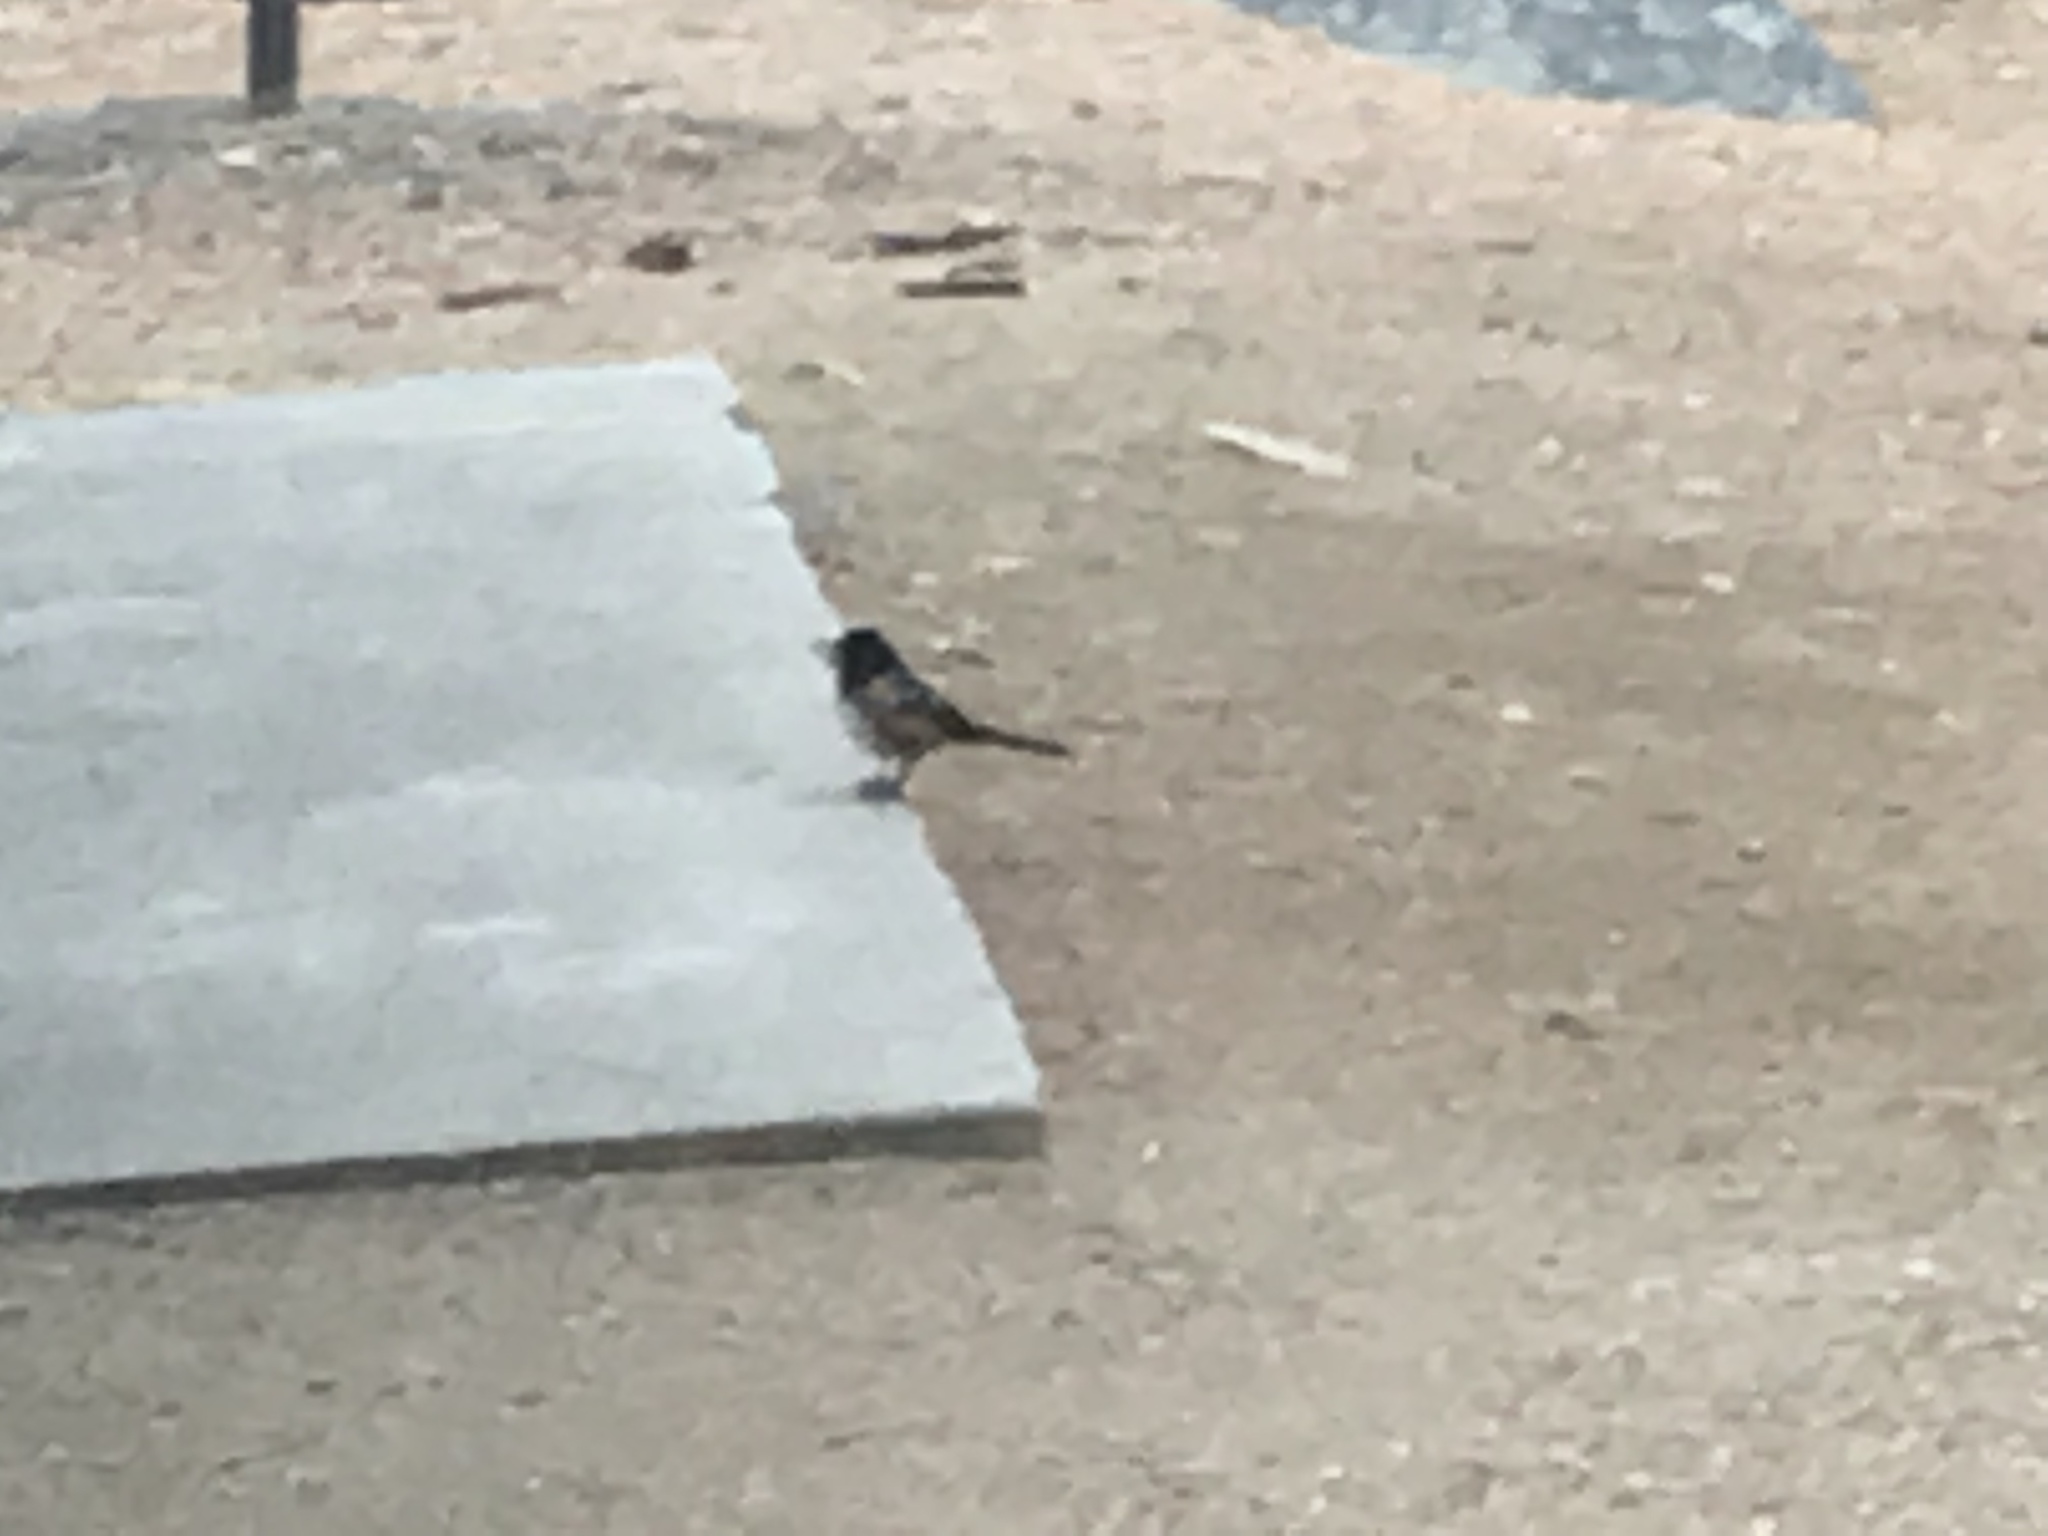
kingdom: Animalia
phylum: Chordata
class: Aves
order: Passeriformes
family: Passerellidae
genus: Pipilo
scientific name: Pipilo maculatus
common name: Spotted towhee
